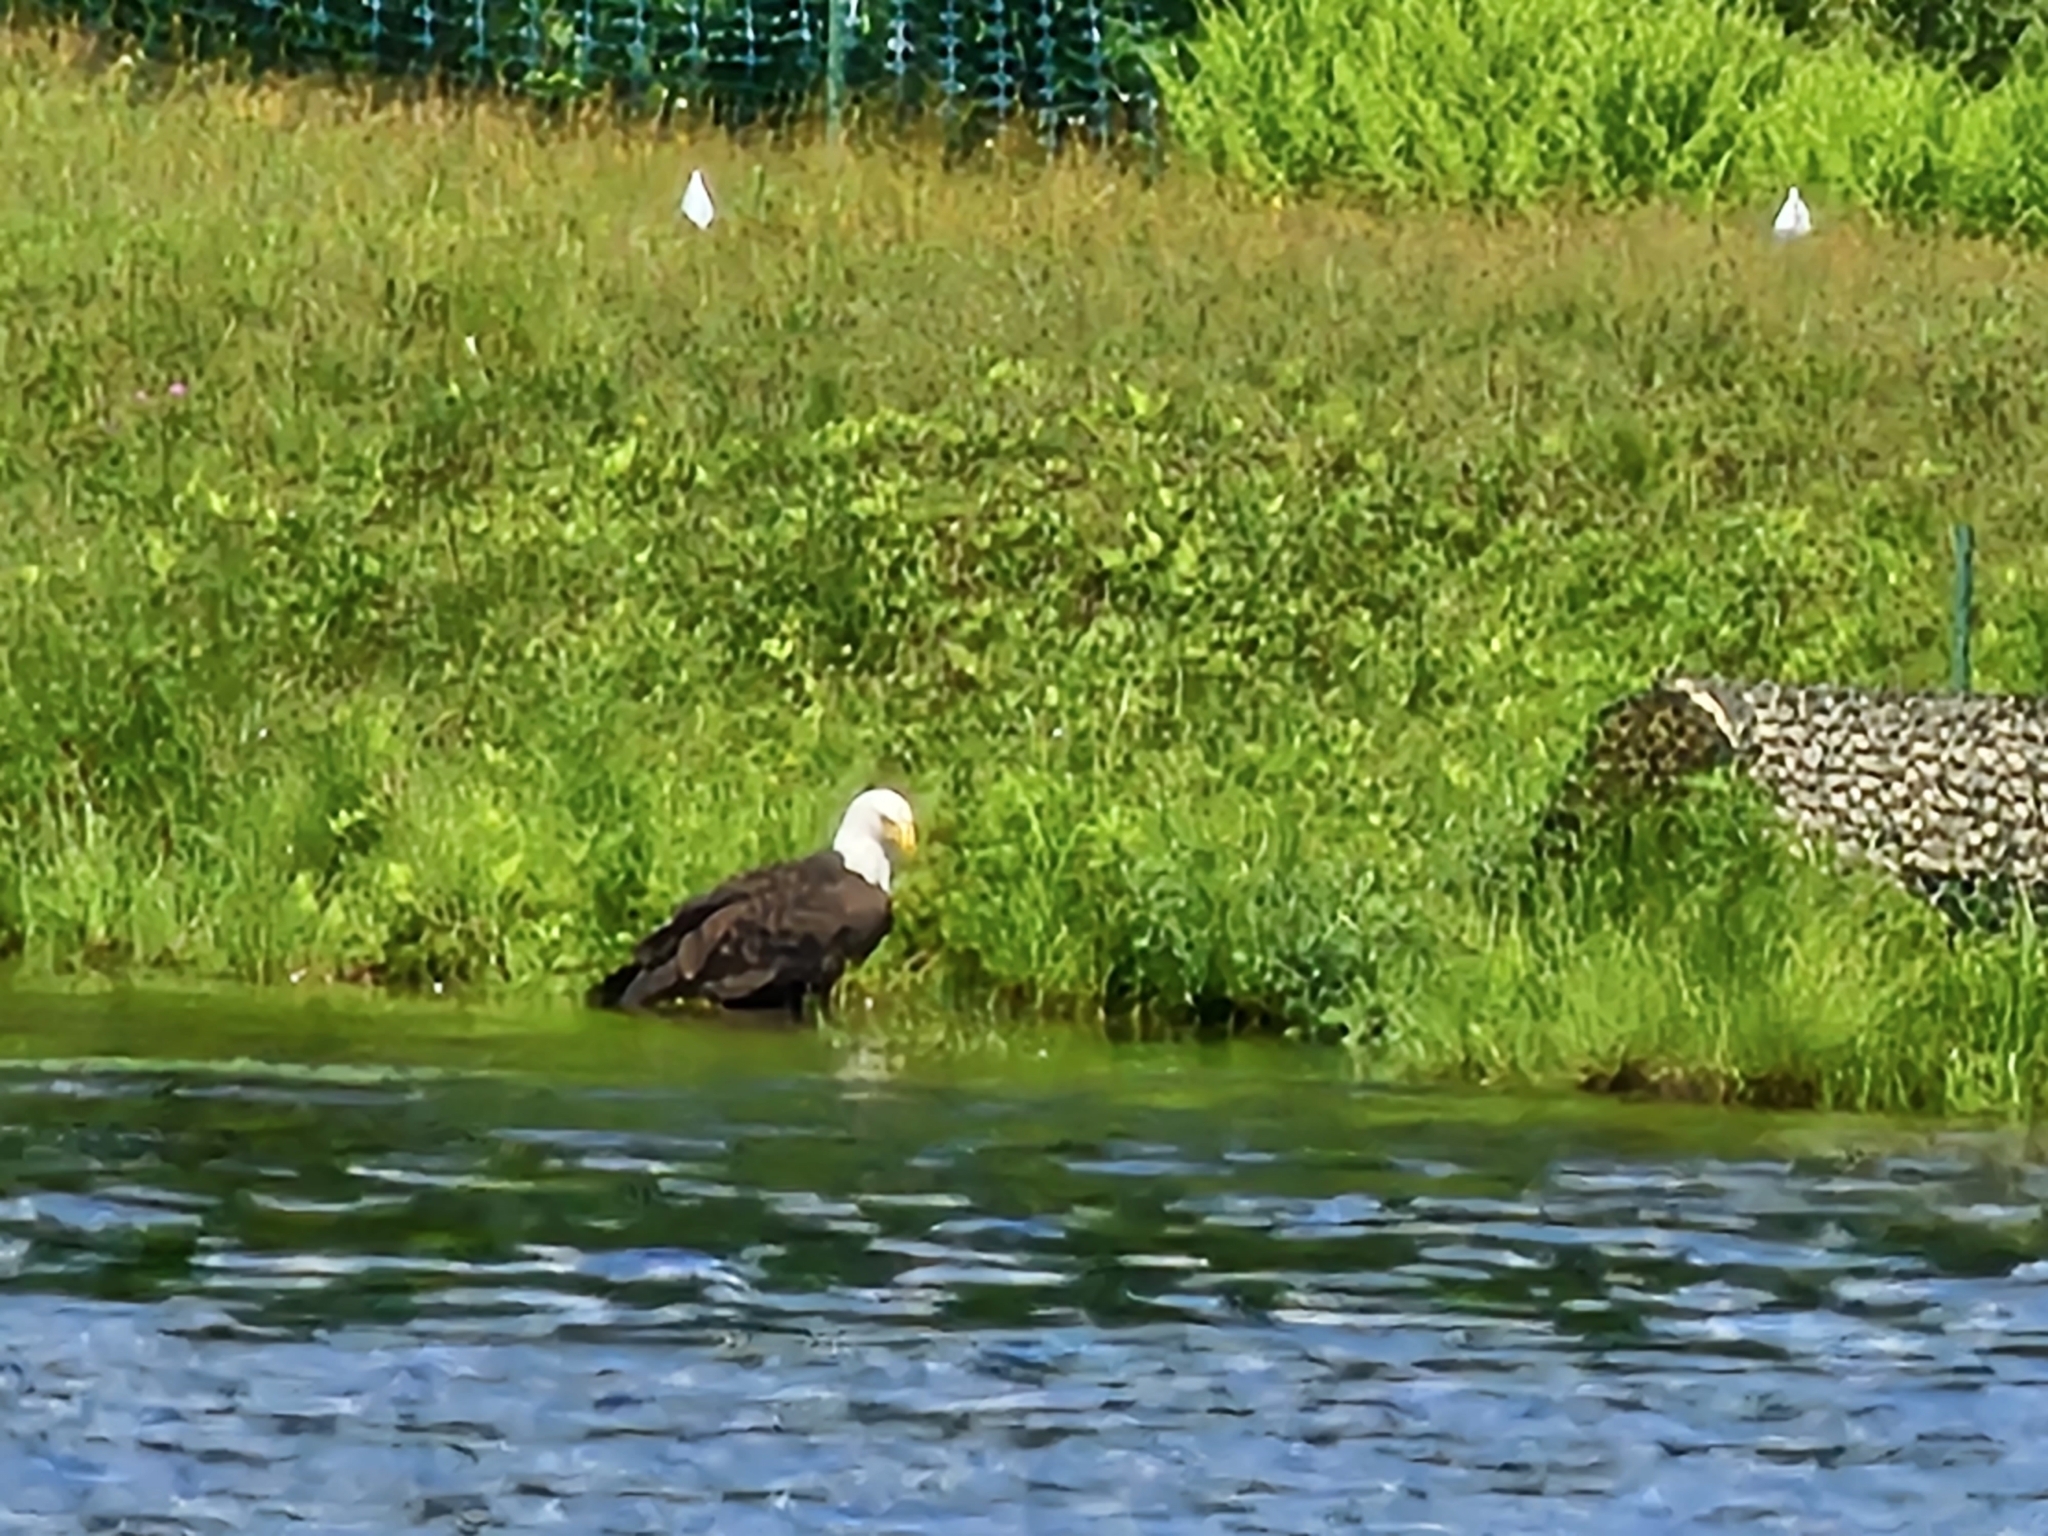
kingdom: Animalia
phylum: Chordata
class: Aves
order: Accipitriformes
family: Accipitridae
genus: Haliaeetus
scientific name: Haliaeetus leucocephalus
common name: Bald eagle
